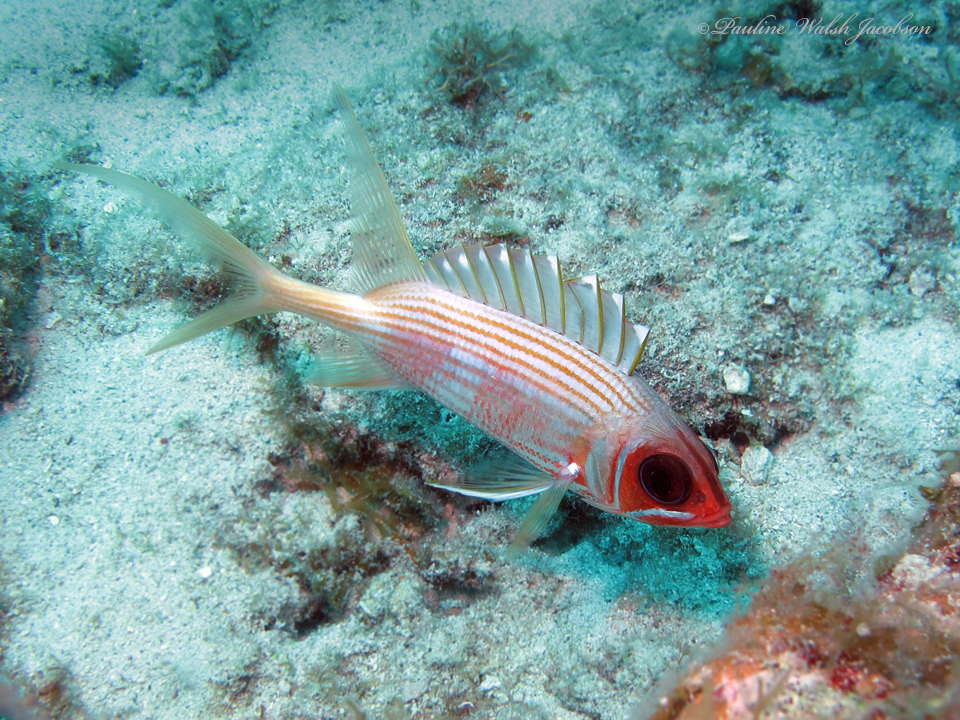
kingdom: Animalia
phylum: Chordata
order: Beryciformes
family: Holocentridae
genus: Holocentrus
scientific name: Holocentrus rufus
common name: Longspine squirrelfish
